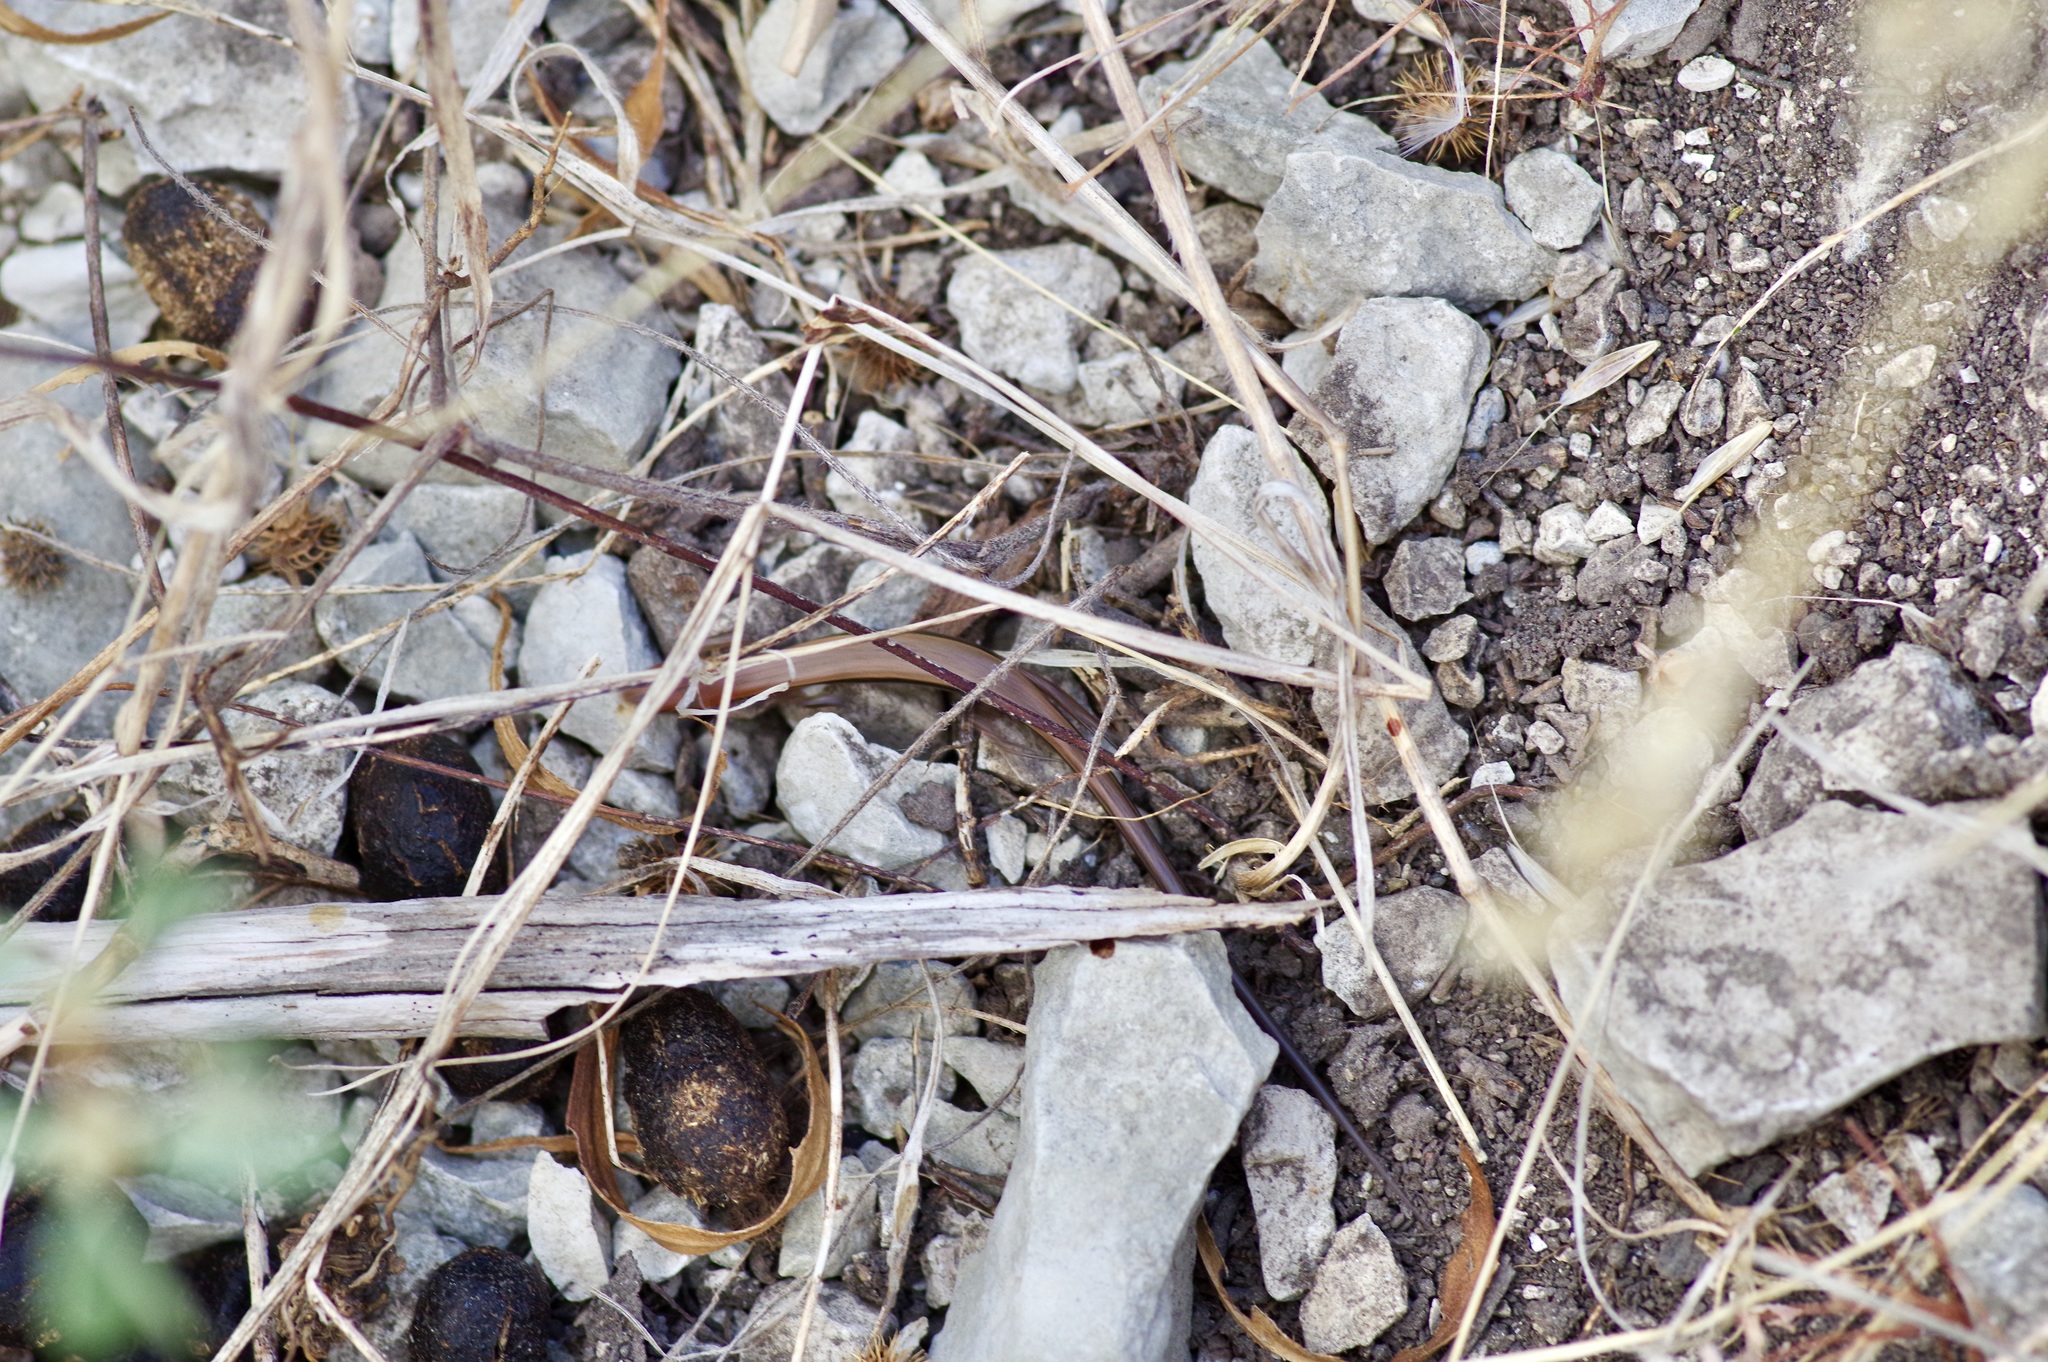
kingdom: Animalia
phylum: Chordata
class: Squamata
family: Scincidae
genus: Scincella
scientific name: Scincella lateralis
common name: Ground skink
